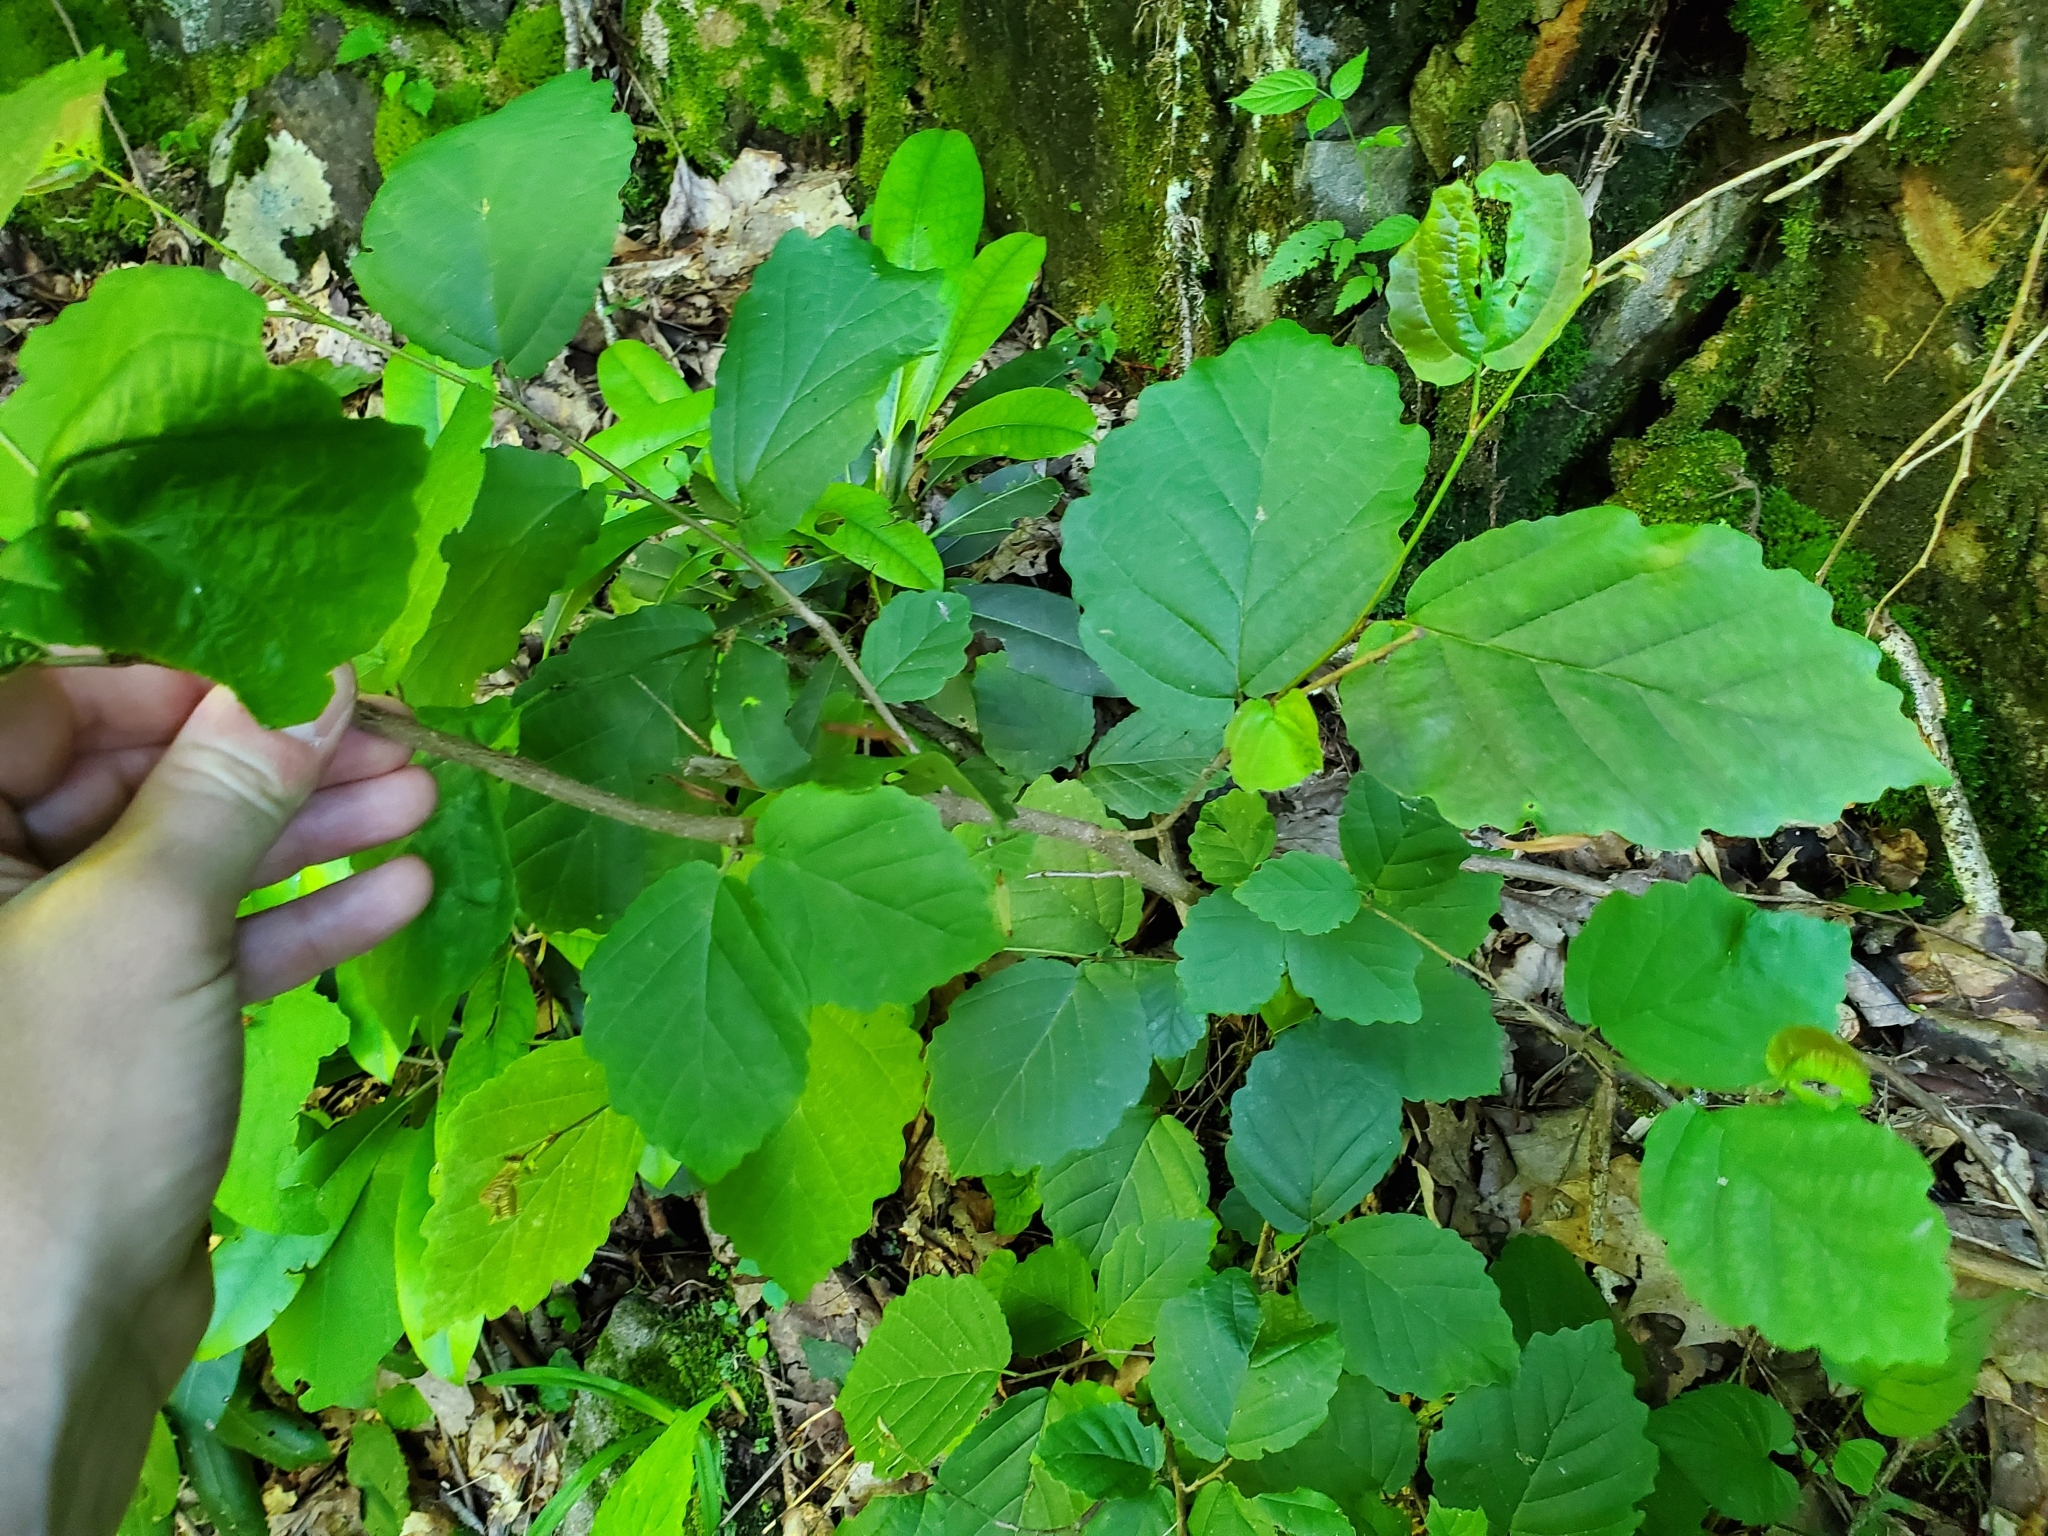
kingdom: Plantae
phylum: Tracheophyta
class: Magnoliopsida
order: Saxifragales
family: Hamamelidaceae
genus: Hamamelis
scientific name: Hamamelis virginiana
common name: Witch-hazel
